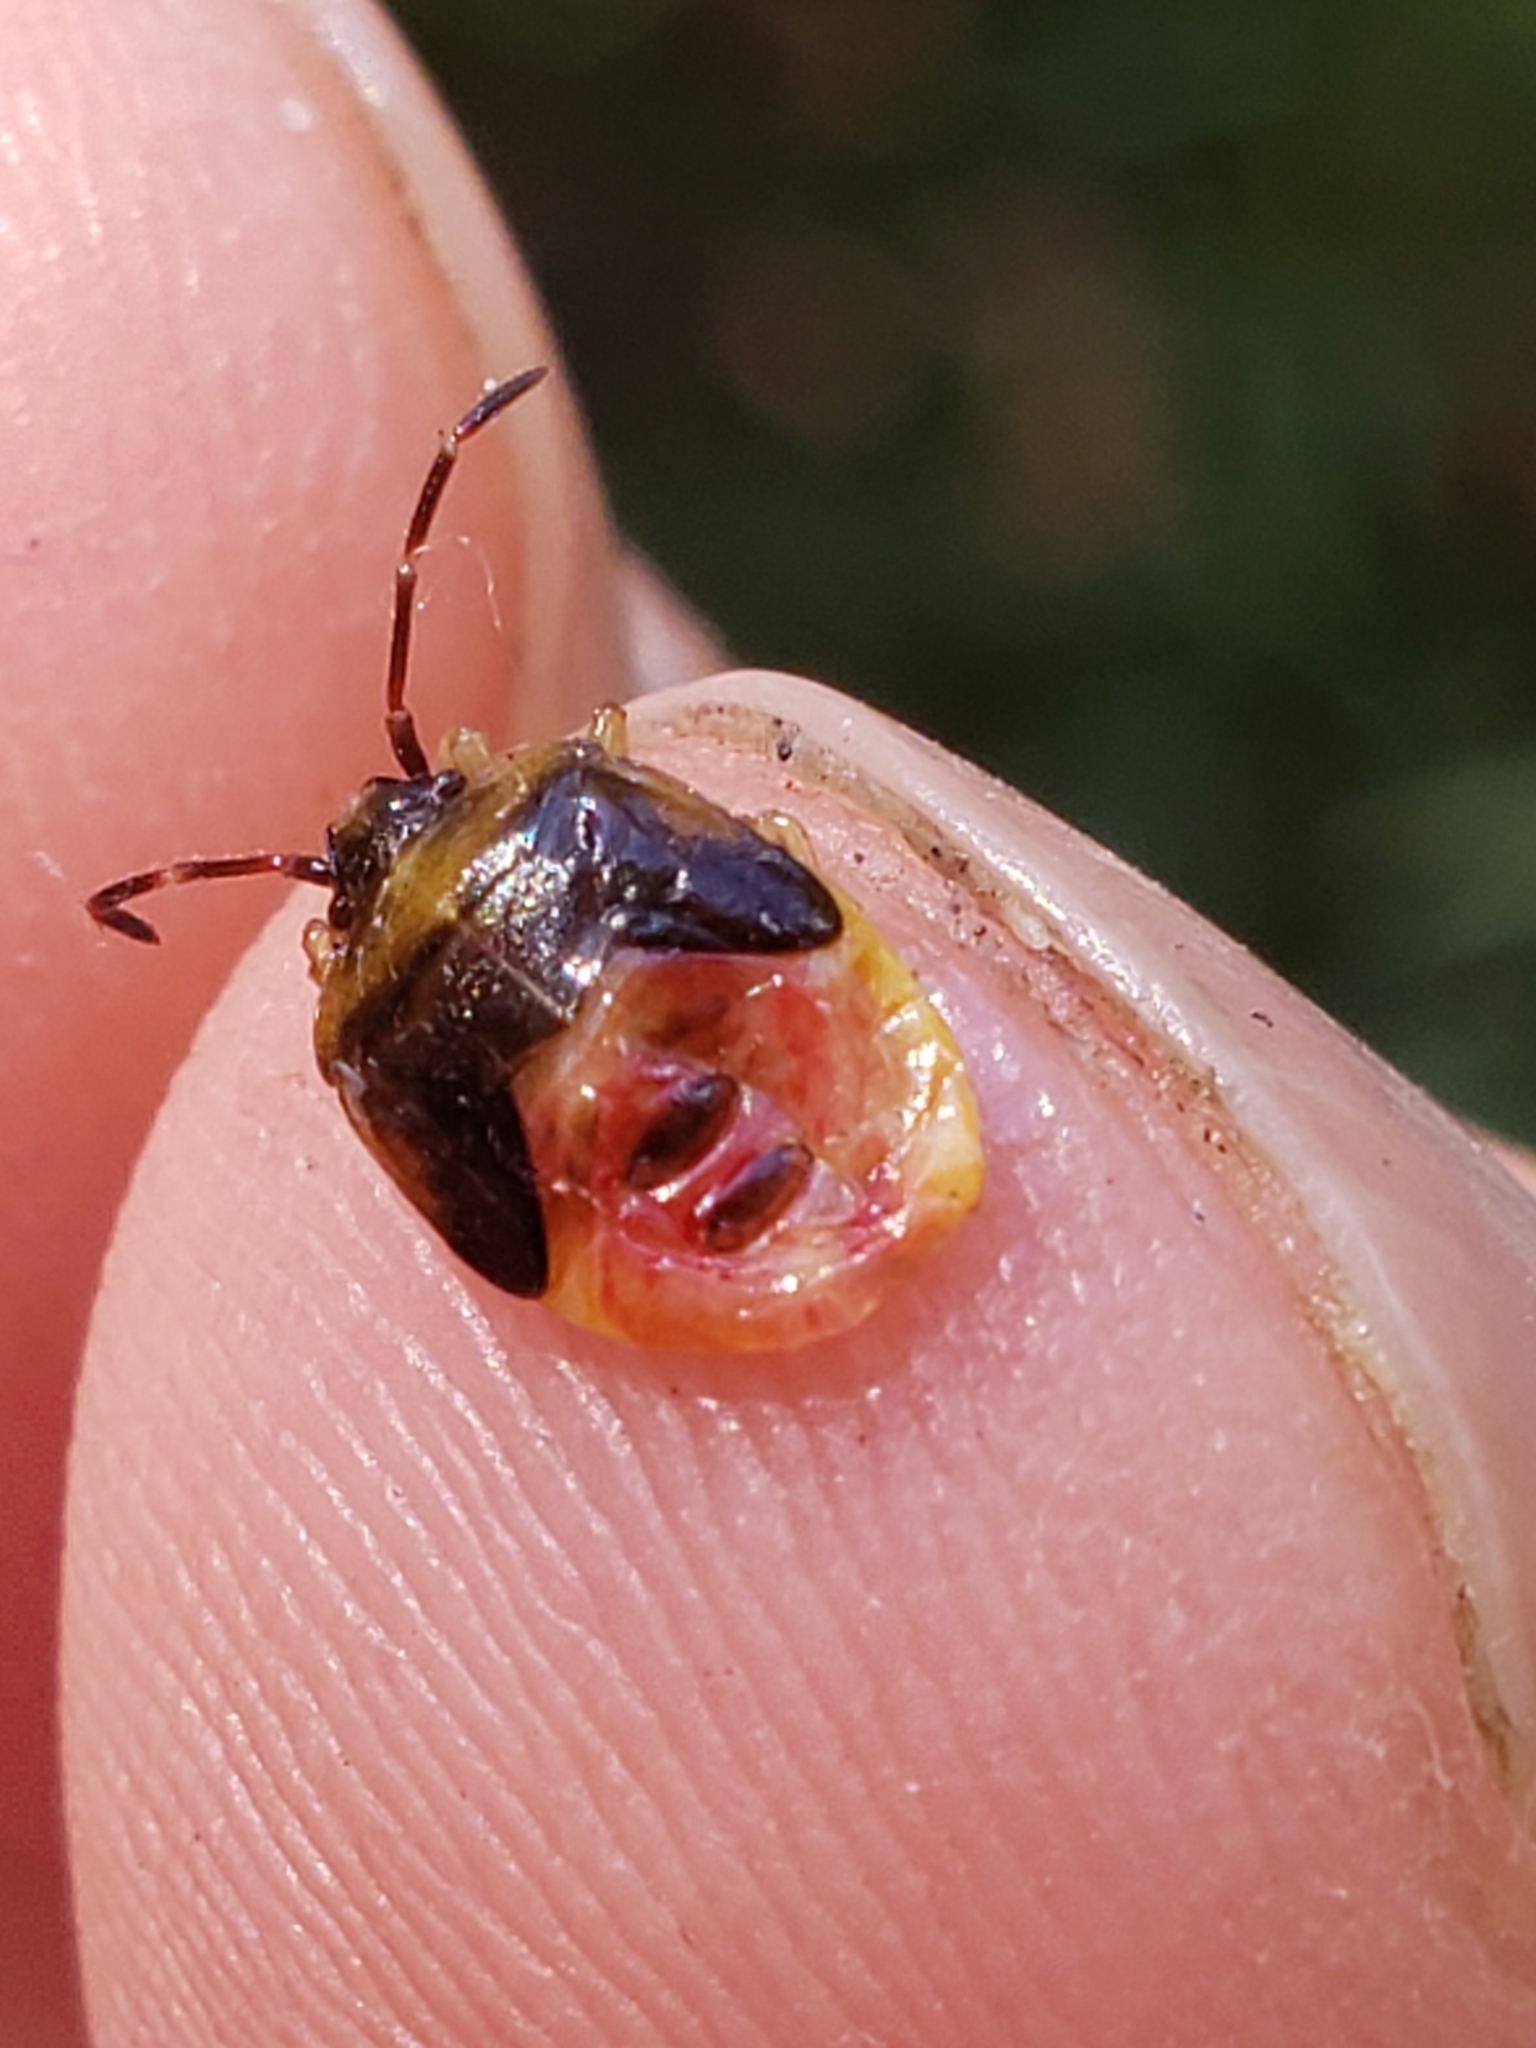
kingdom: Animalia
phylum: Arthropoda
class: Insecta
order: Hemiptera
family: Acanthosomatidae
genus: Elasmostethus
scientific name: Elasmostethus cruciatus
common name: Red-cross shield bug
